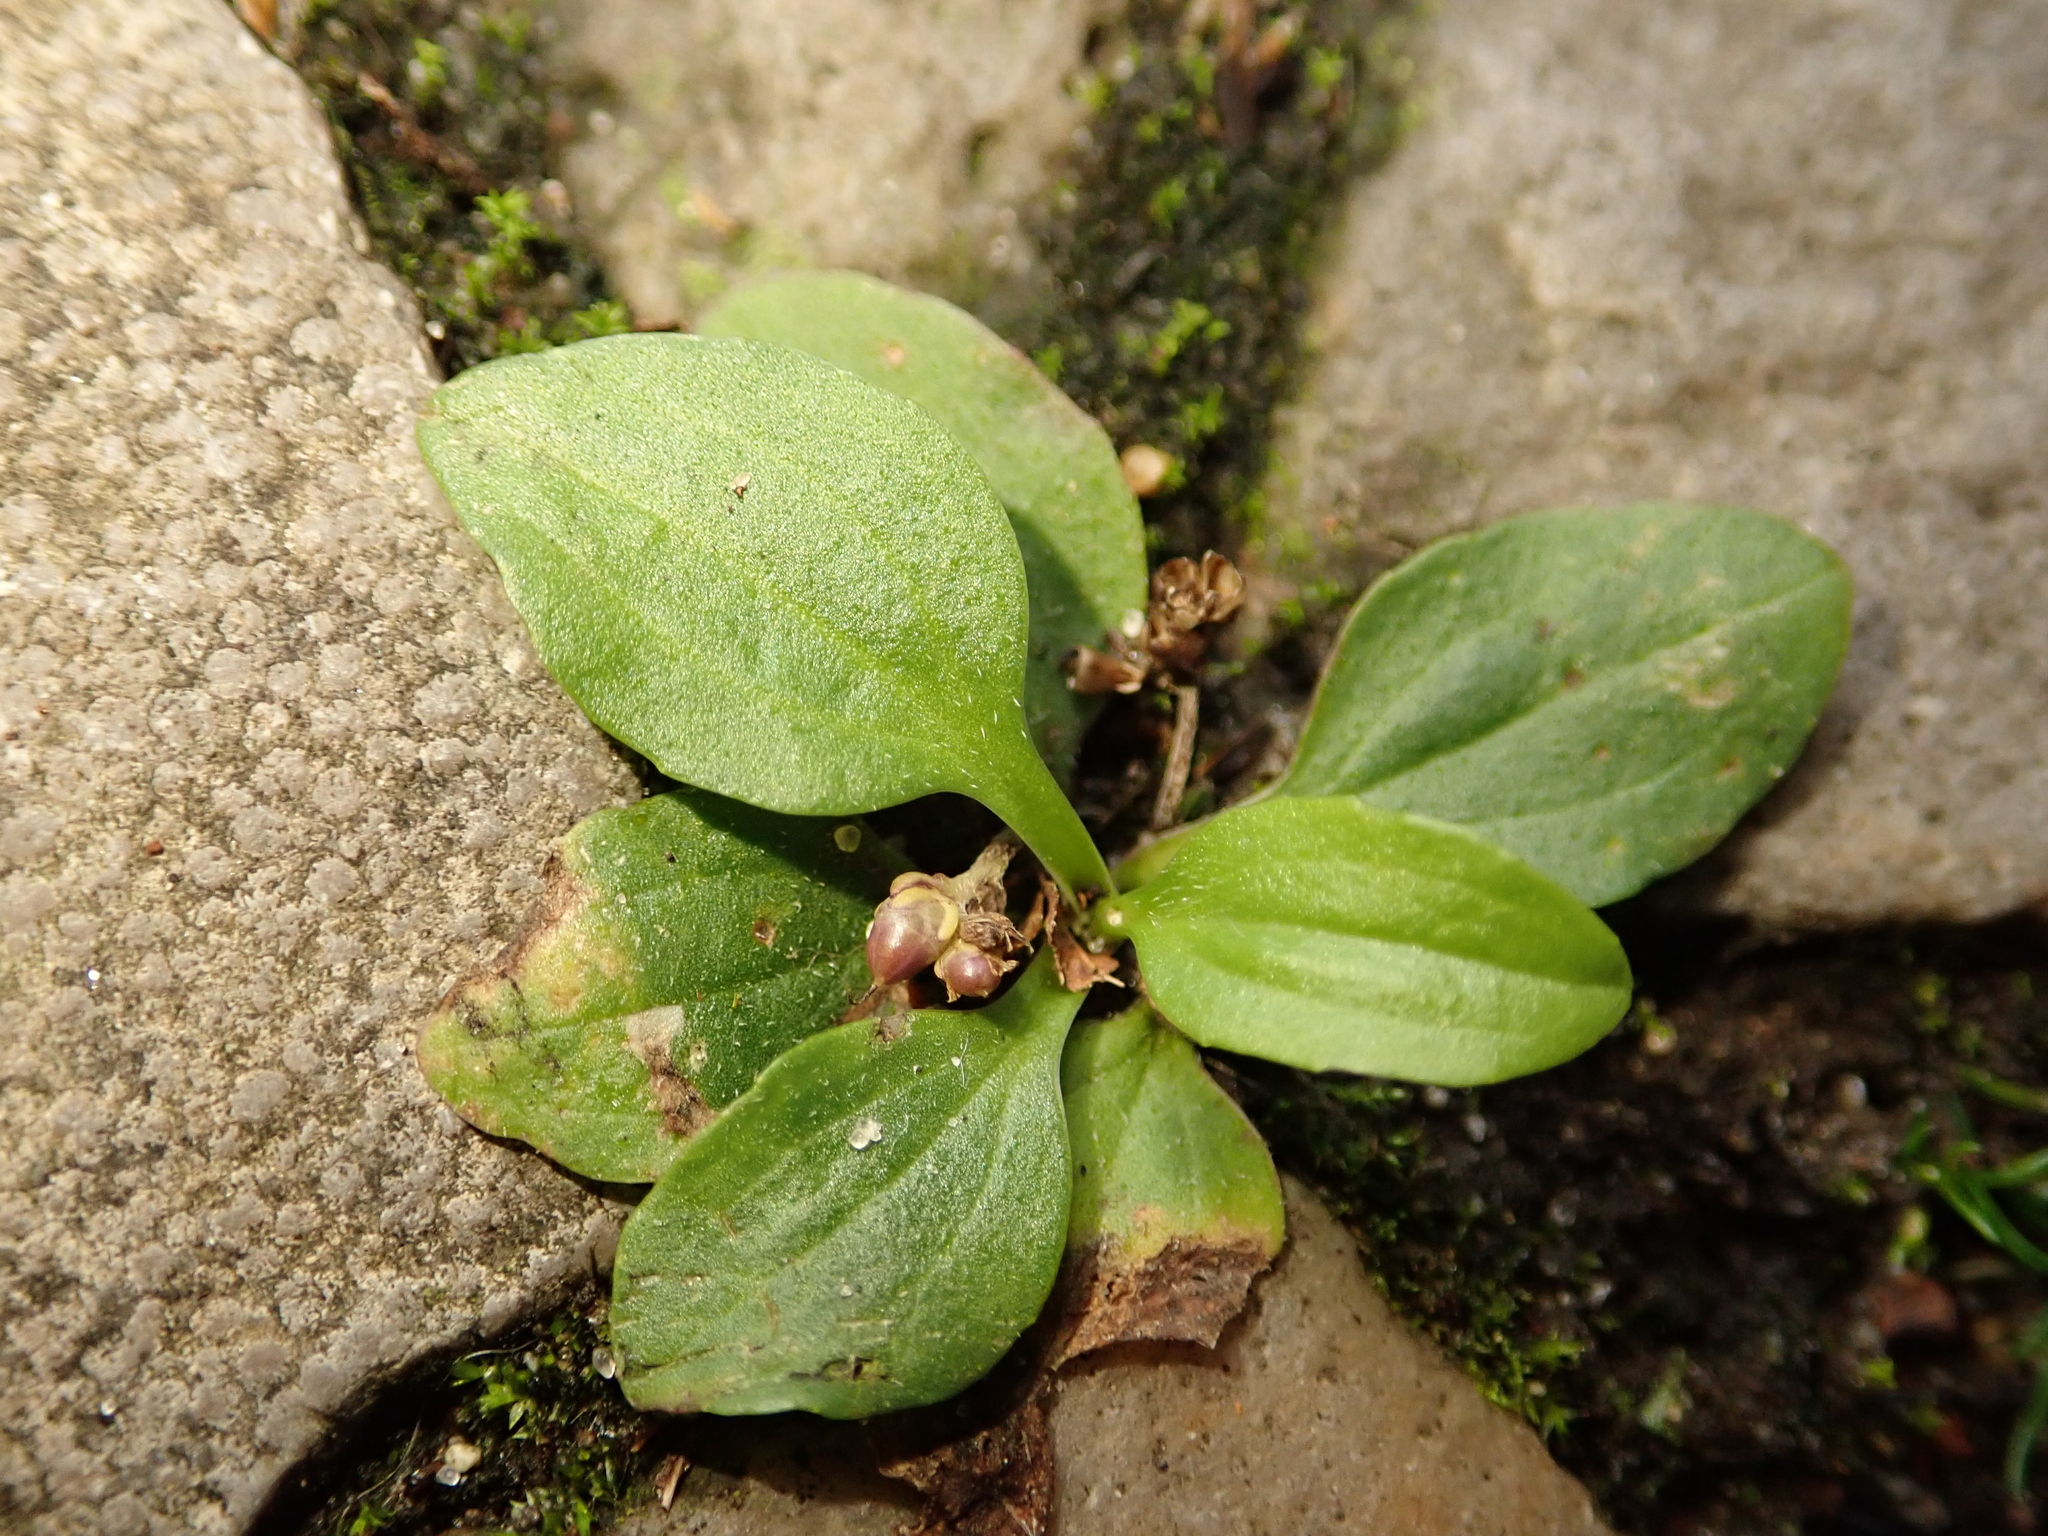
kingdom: Plantae
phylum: Tracheophyta
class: Magnoliopsida
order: Lamiales
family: Plantaginaceae
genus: Plantago
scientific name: Plantago major
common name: Common plantain
